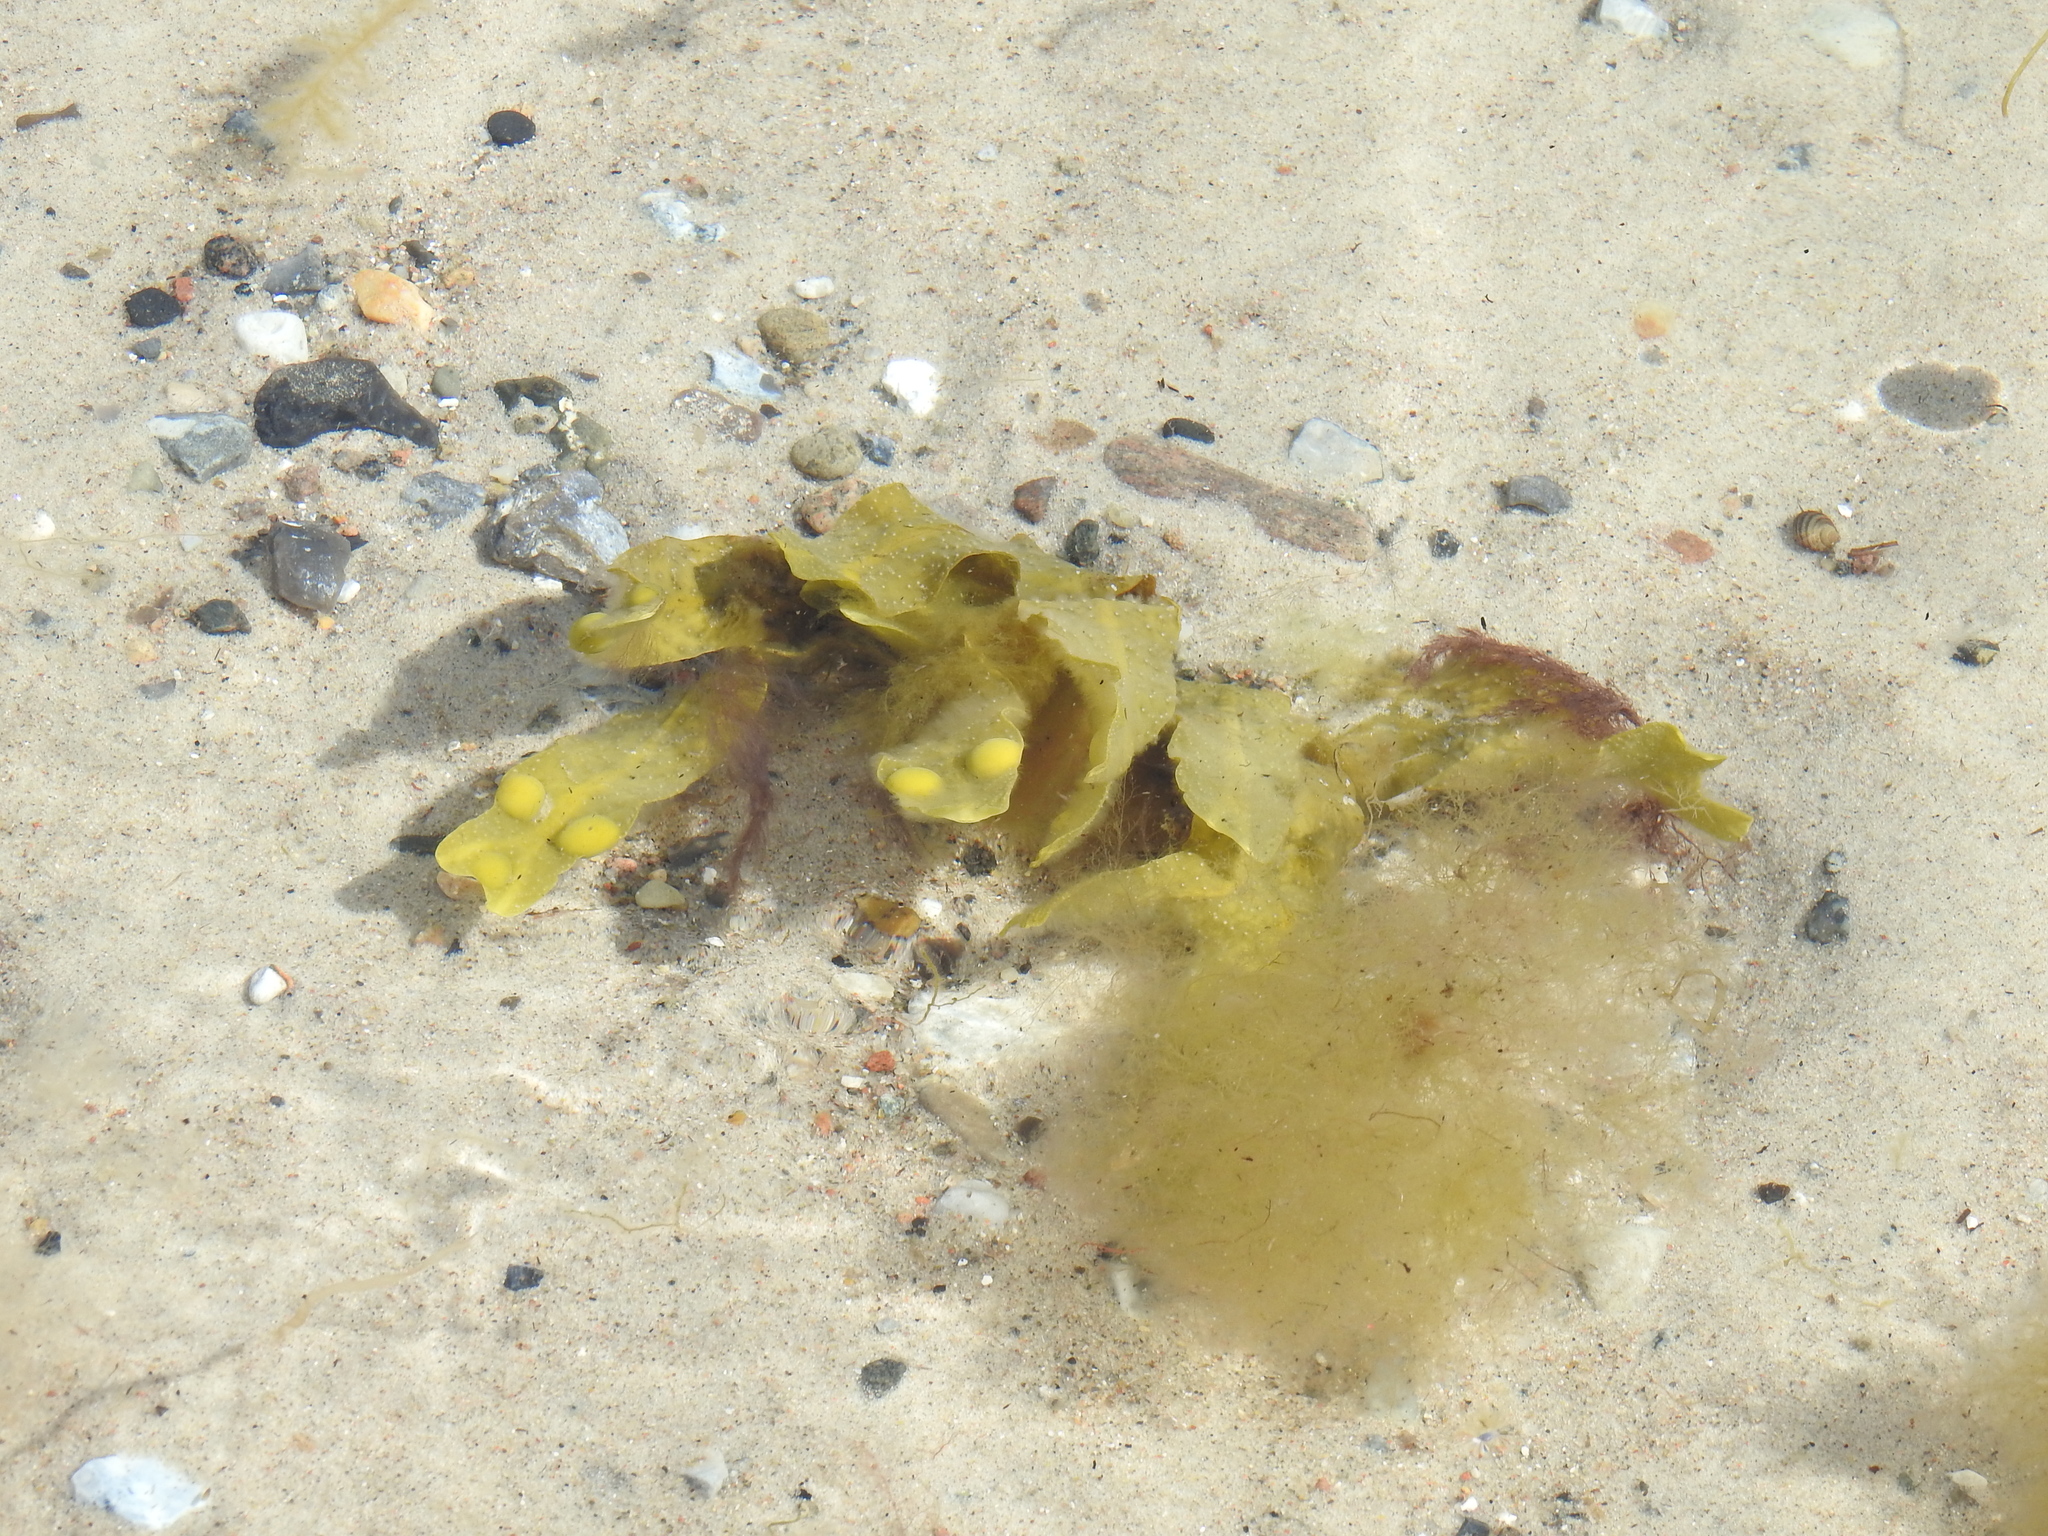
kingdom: Chromista
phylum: Ochrophyta
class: Phaeophyceae
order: Fucales
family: Fucaceae
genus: Fucus
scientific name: Fucus vesiculosus
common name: Bladder wrack
